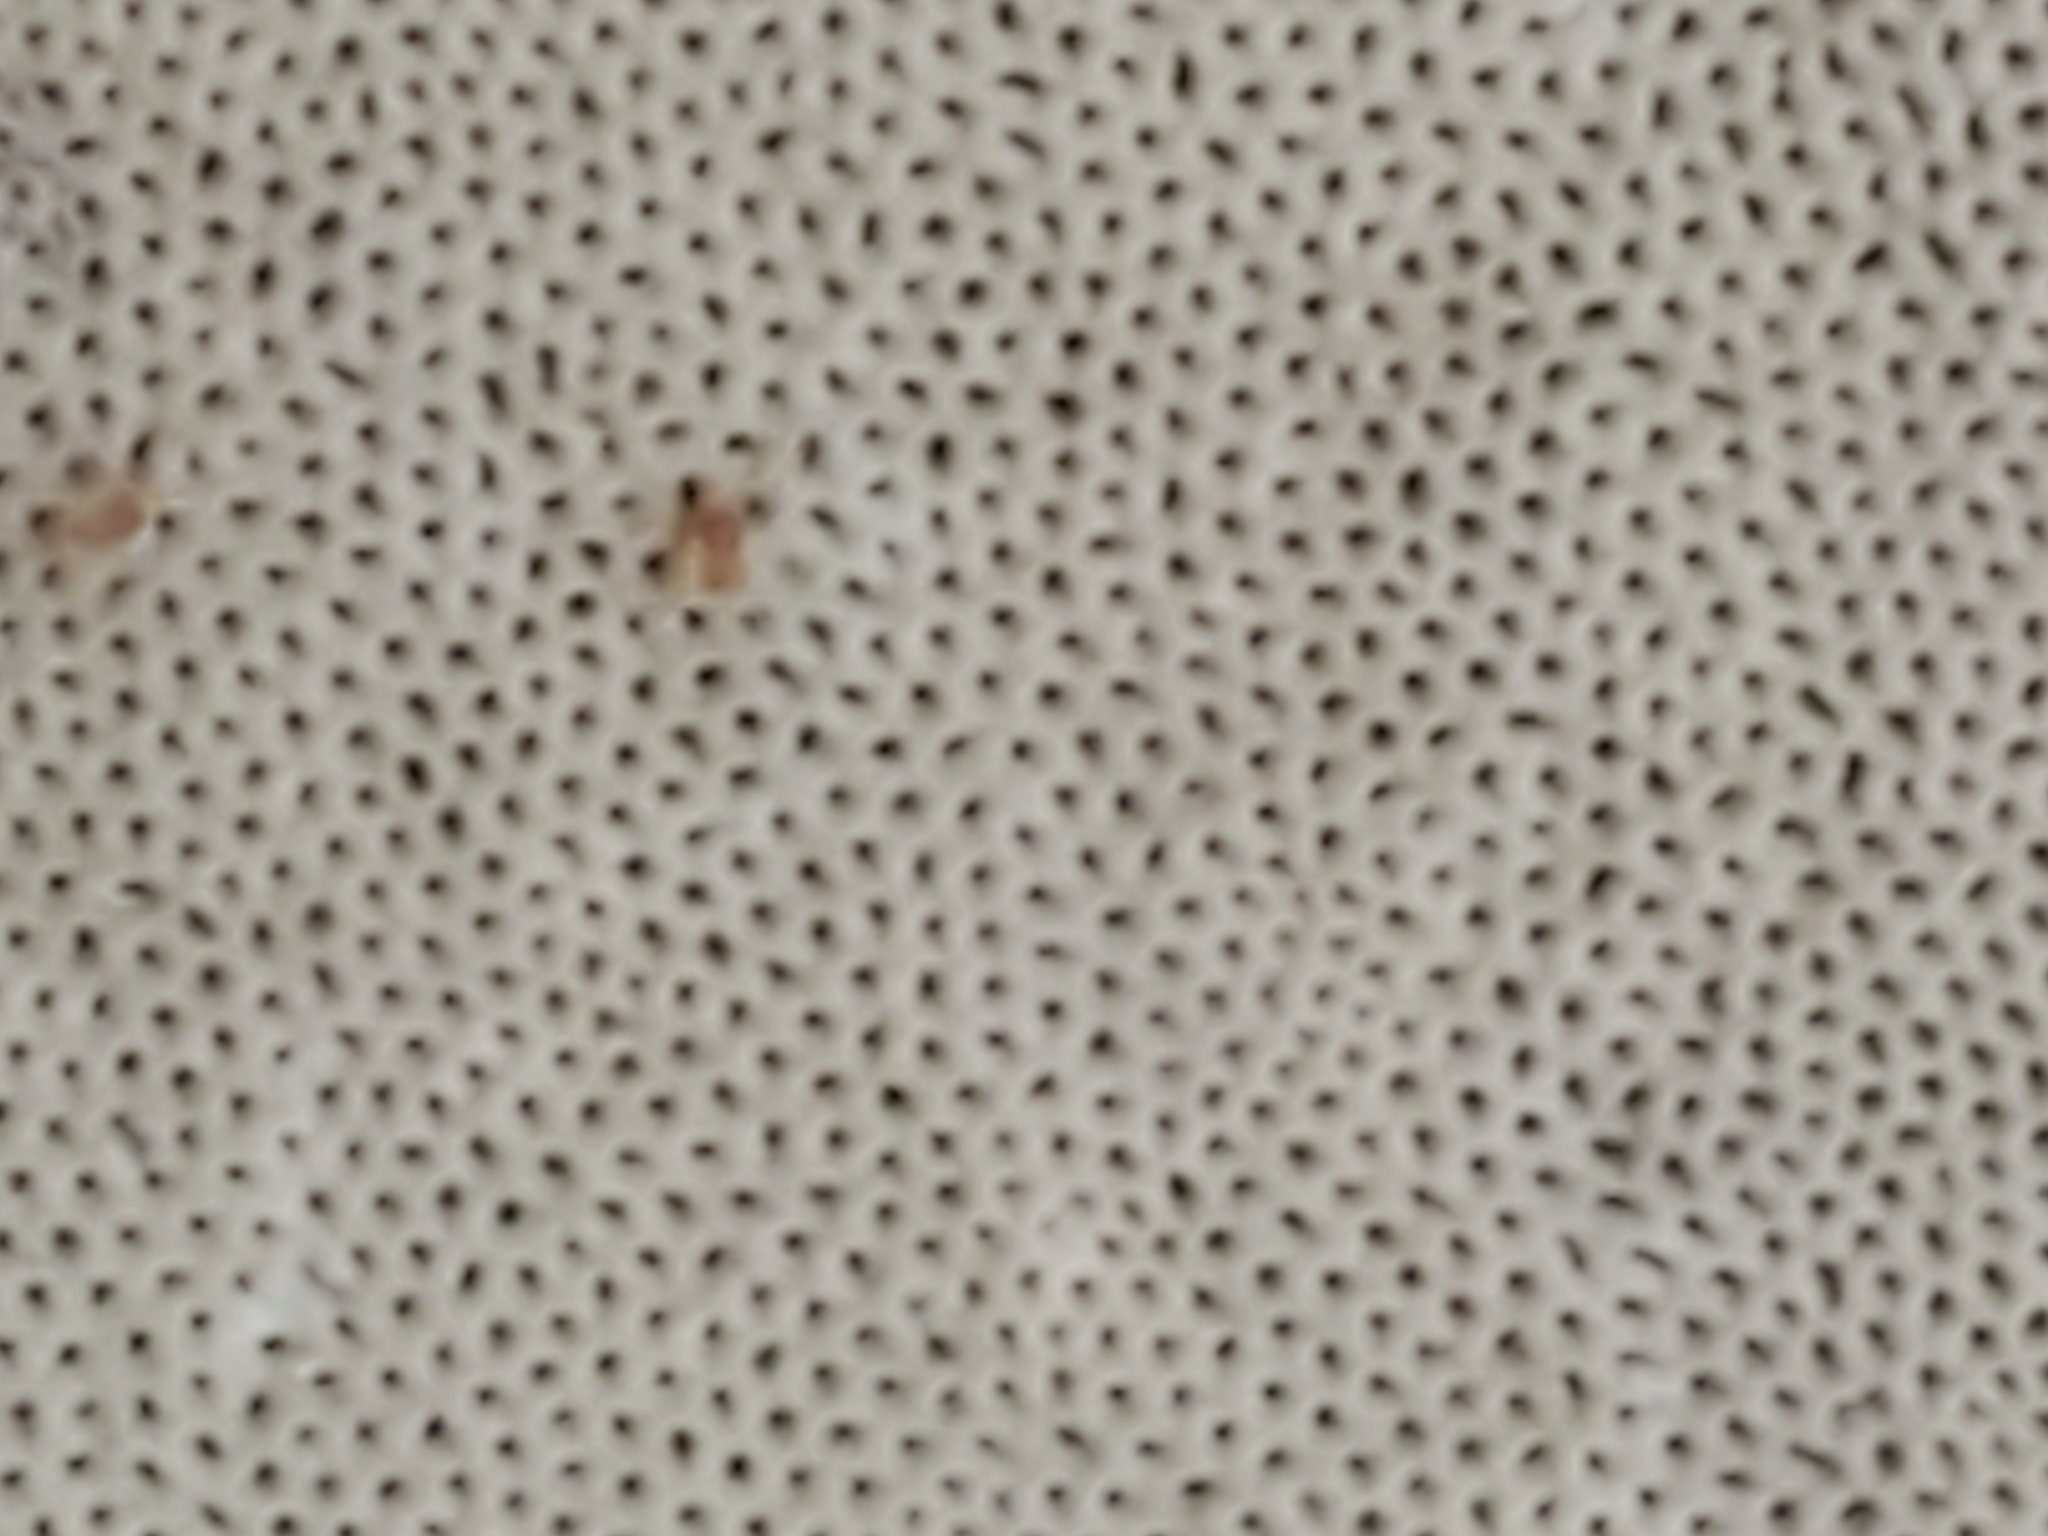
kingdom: Fungi
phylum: Basidiomycota
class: Agaricomycetes
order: Polyporales
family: Polyporaceae
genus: Ganoderma
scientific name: Ganoderma applanatum
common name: Artist's bracket
